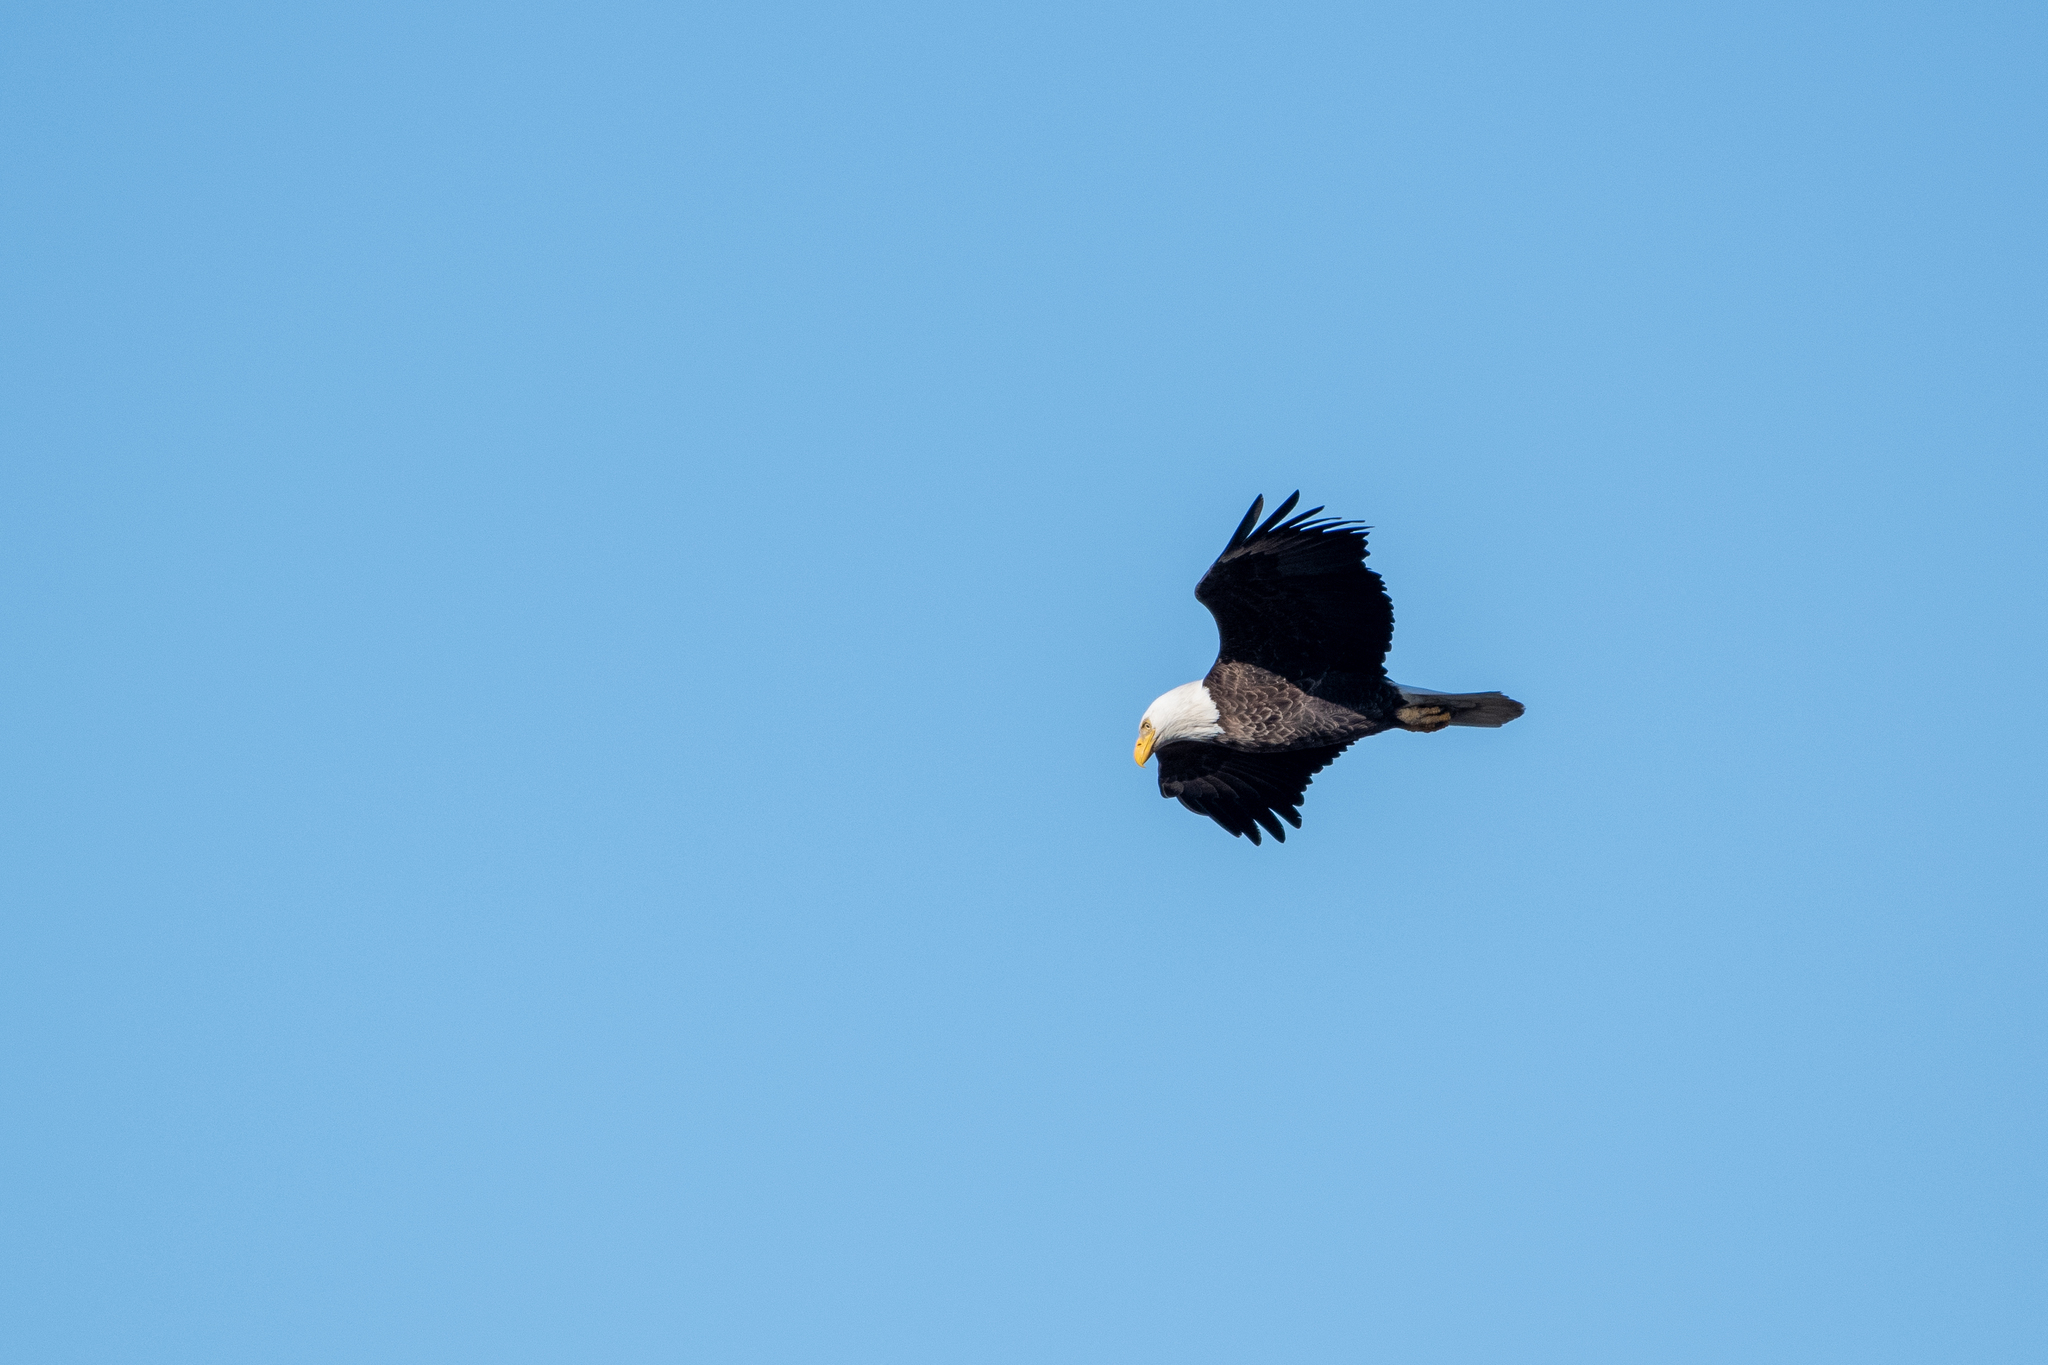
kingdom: Animalia
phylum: Chordata
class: Aves
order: Accipitriformes
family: Accipitridae
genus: Haliaeetus
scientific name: Haliaeetus leucocephalus
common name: Bald eagle
